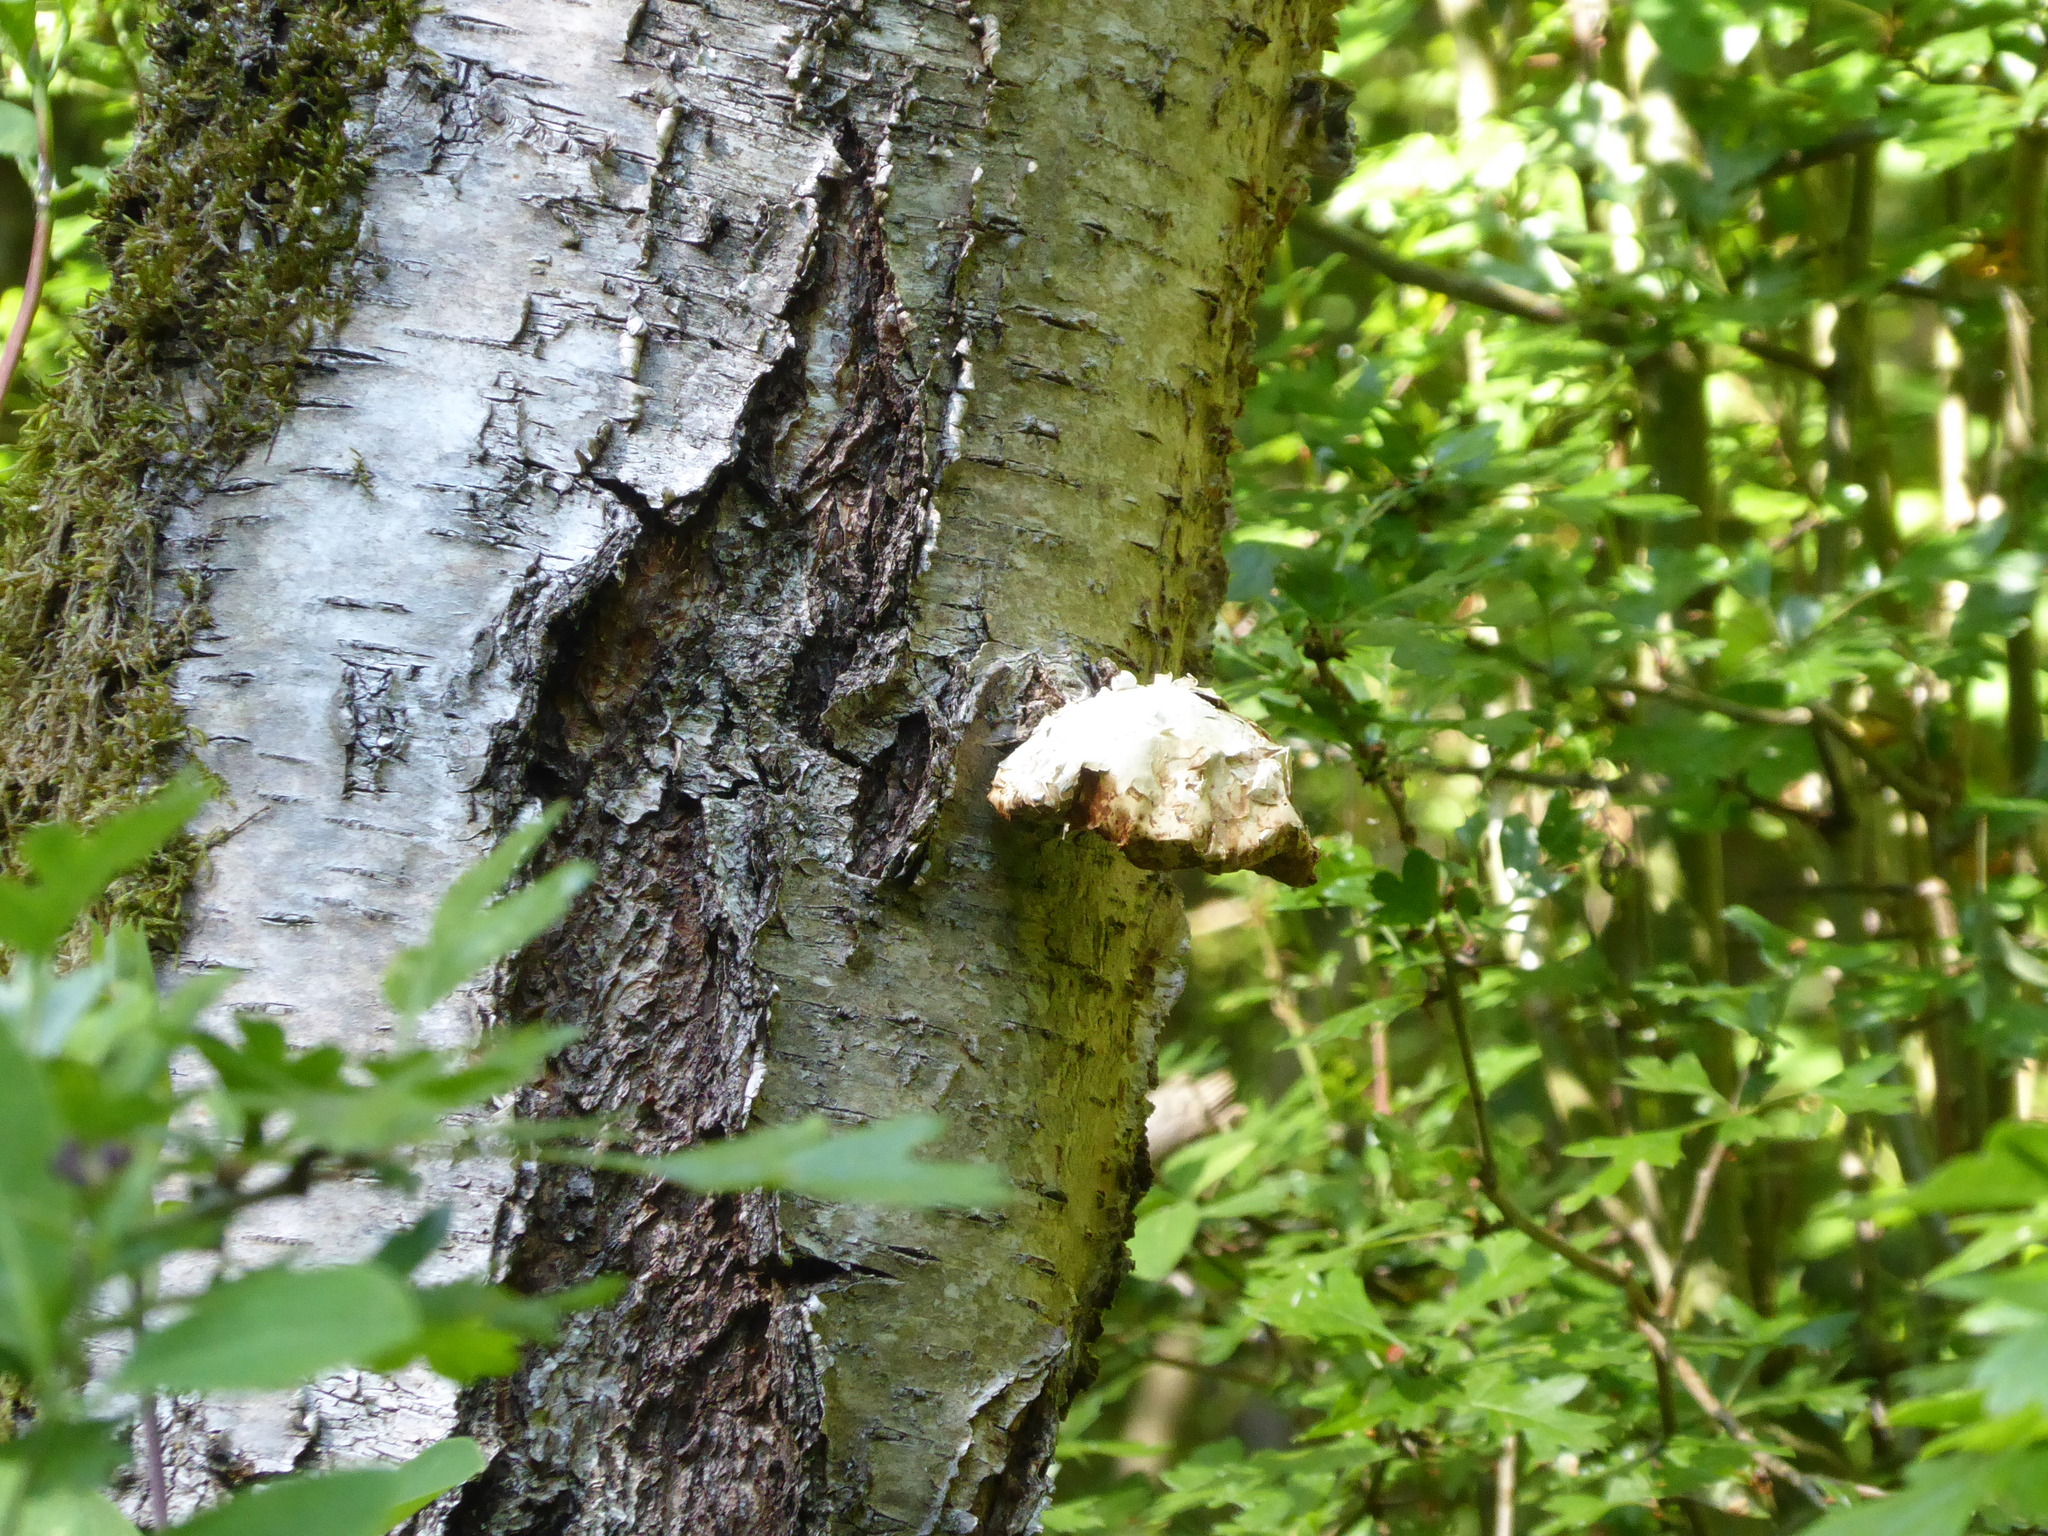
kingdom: Fungi
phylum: Basidiomycota
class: Agaricomycetes
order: Polyporales
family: Fomitopsidaceae
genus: Fomitopsis
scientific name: Fomitopsis betulina
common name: Birch polypore
